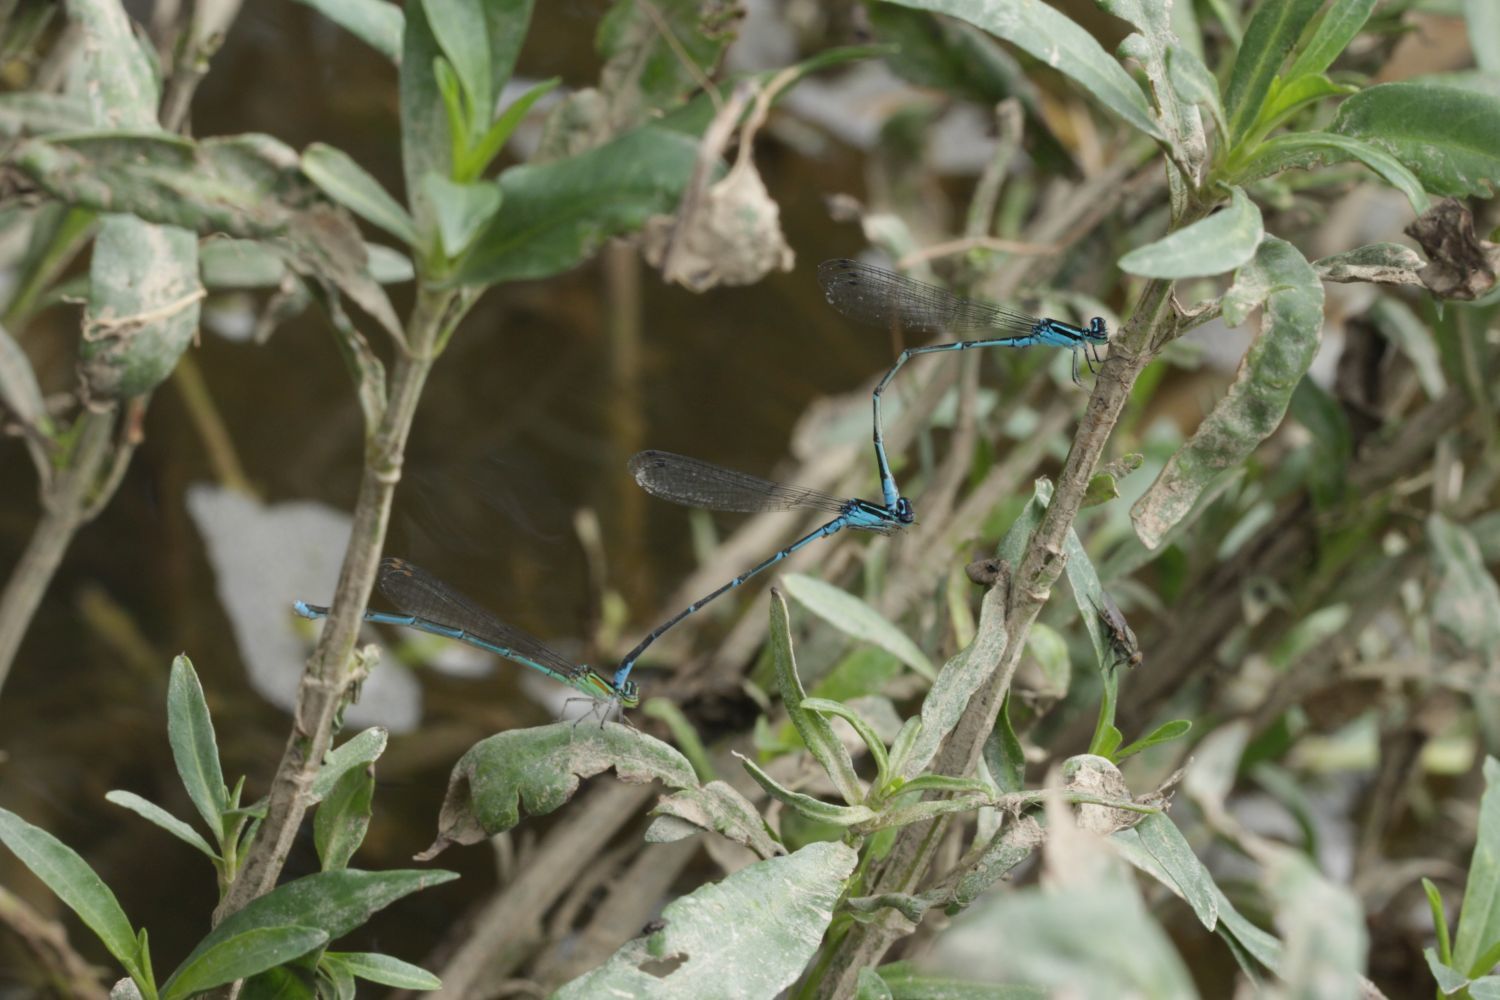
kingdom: Animalia
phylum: Arthropoda
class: Insecta
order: Odonata
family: Coenagrionidae
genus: Enallagma
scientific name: Enallagma exsulans
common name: Stream bluet
